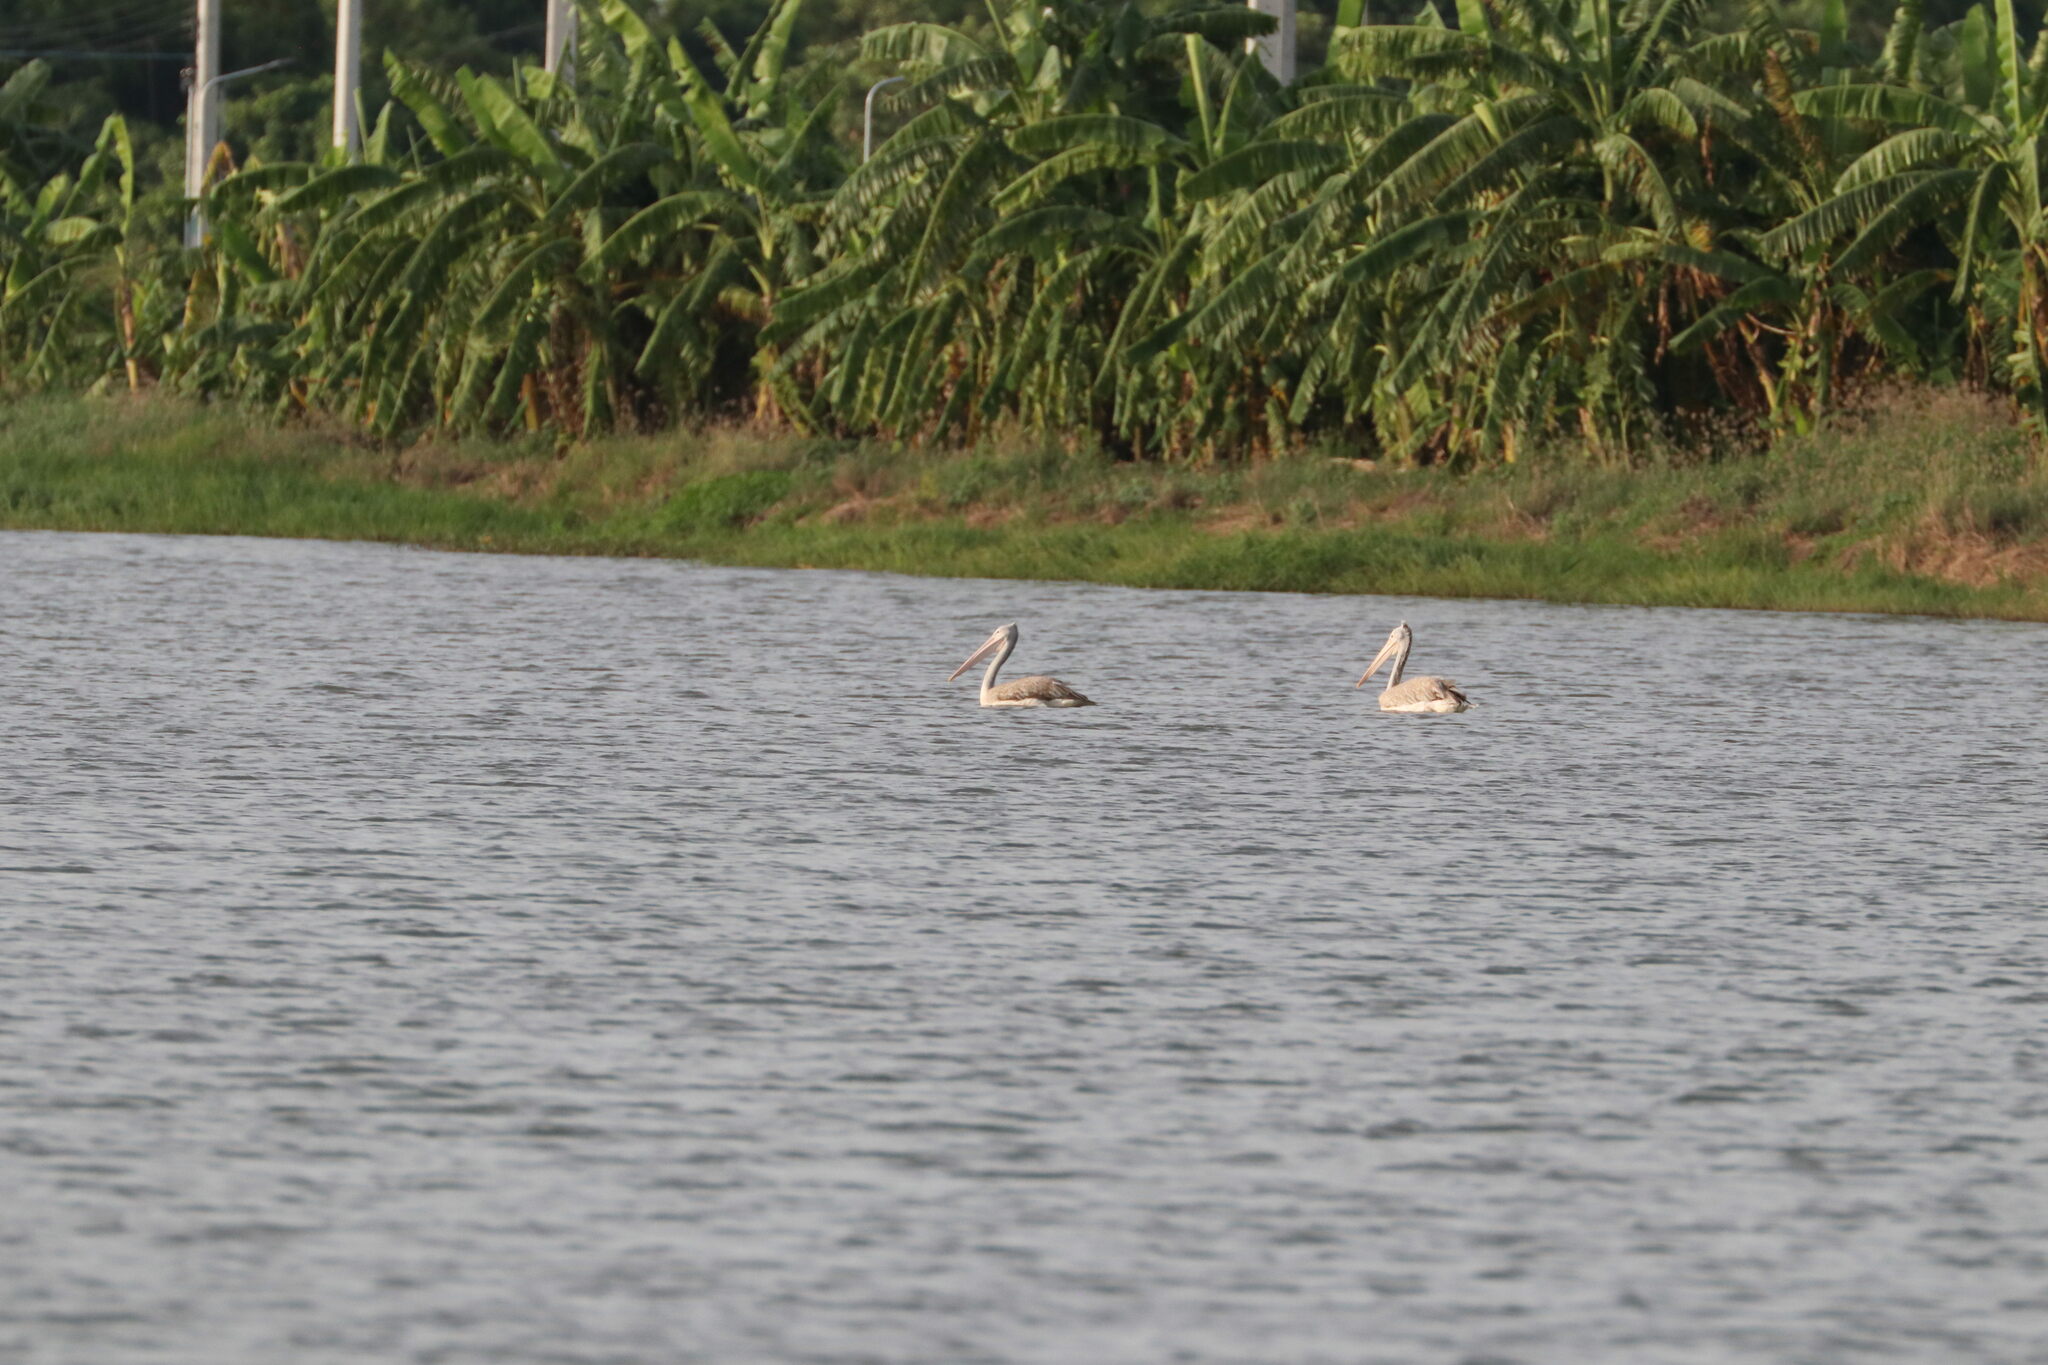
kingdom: Animalia
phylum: Chordata
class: Aves
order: Pelecaniformes
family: Pelecanidae
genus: Pelecanus
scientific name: Pelecanus philippensis
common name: Spot-billed pelican
